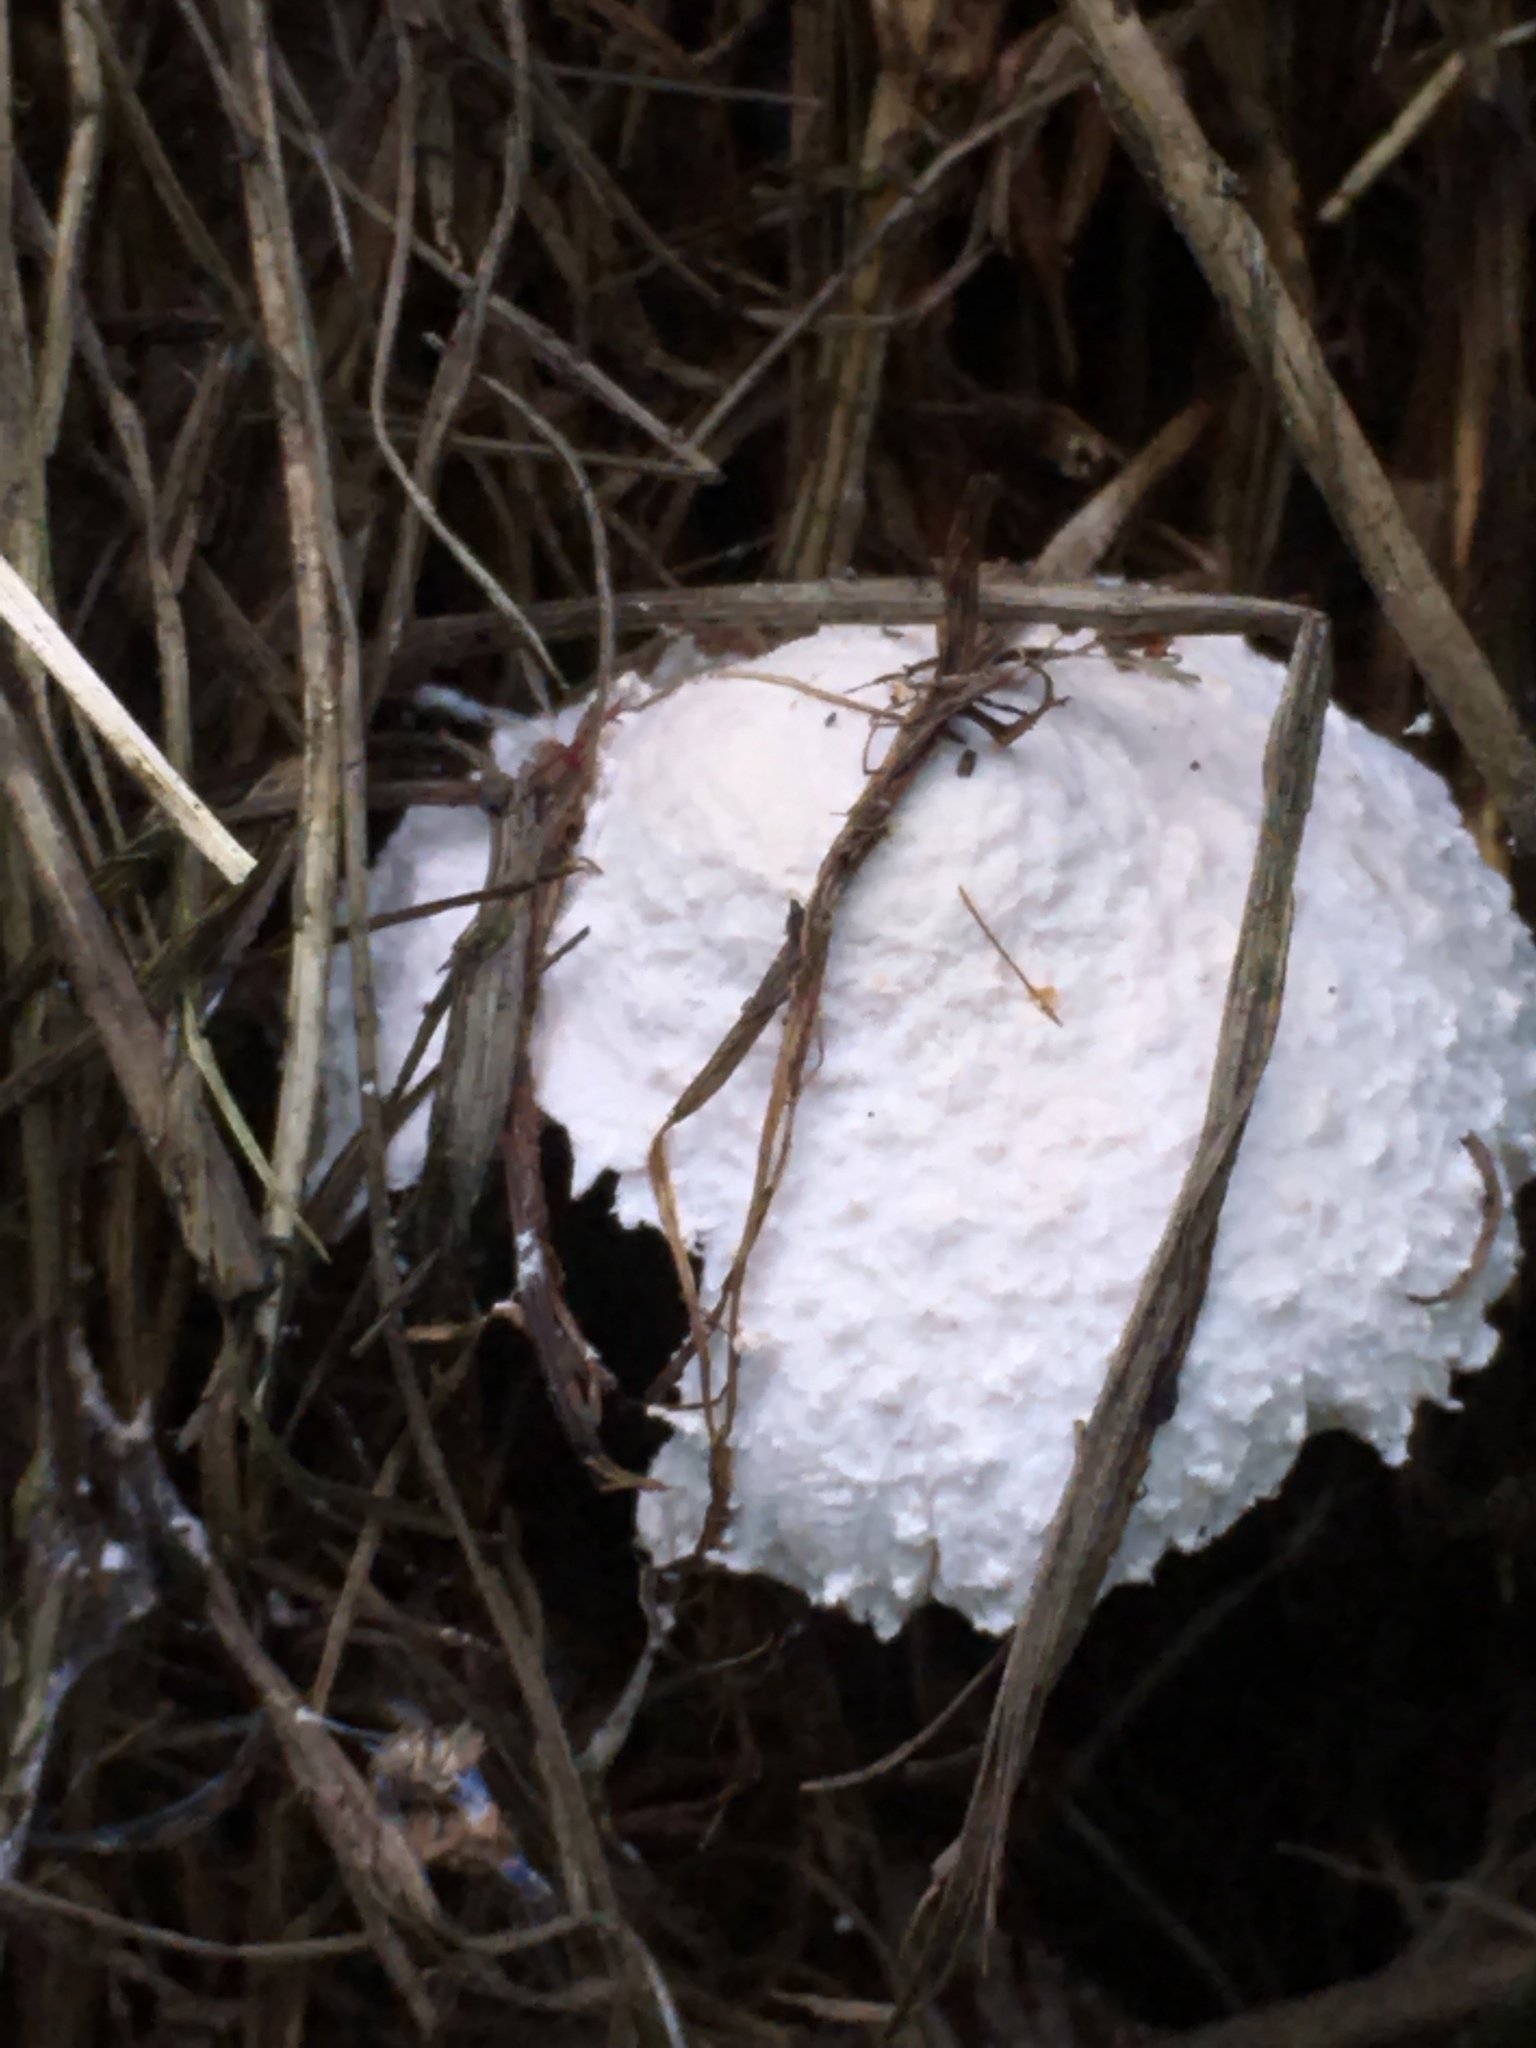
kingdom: Fungi
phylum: Basidiomycota
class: Agaricomycetes
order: Agaricales
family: Agaricaceae
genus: Leucocoprinus
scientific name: Leucocoprinus cretaceus
